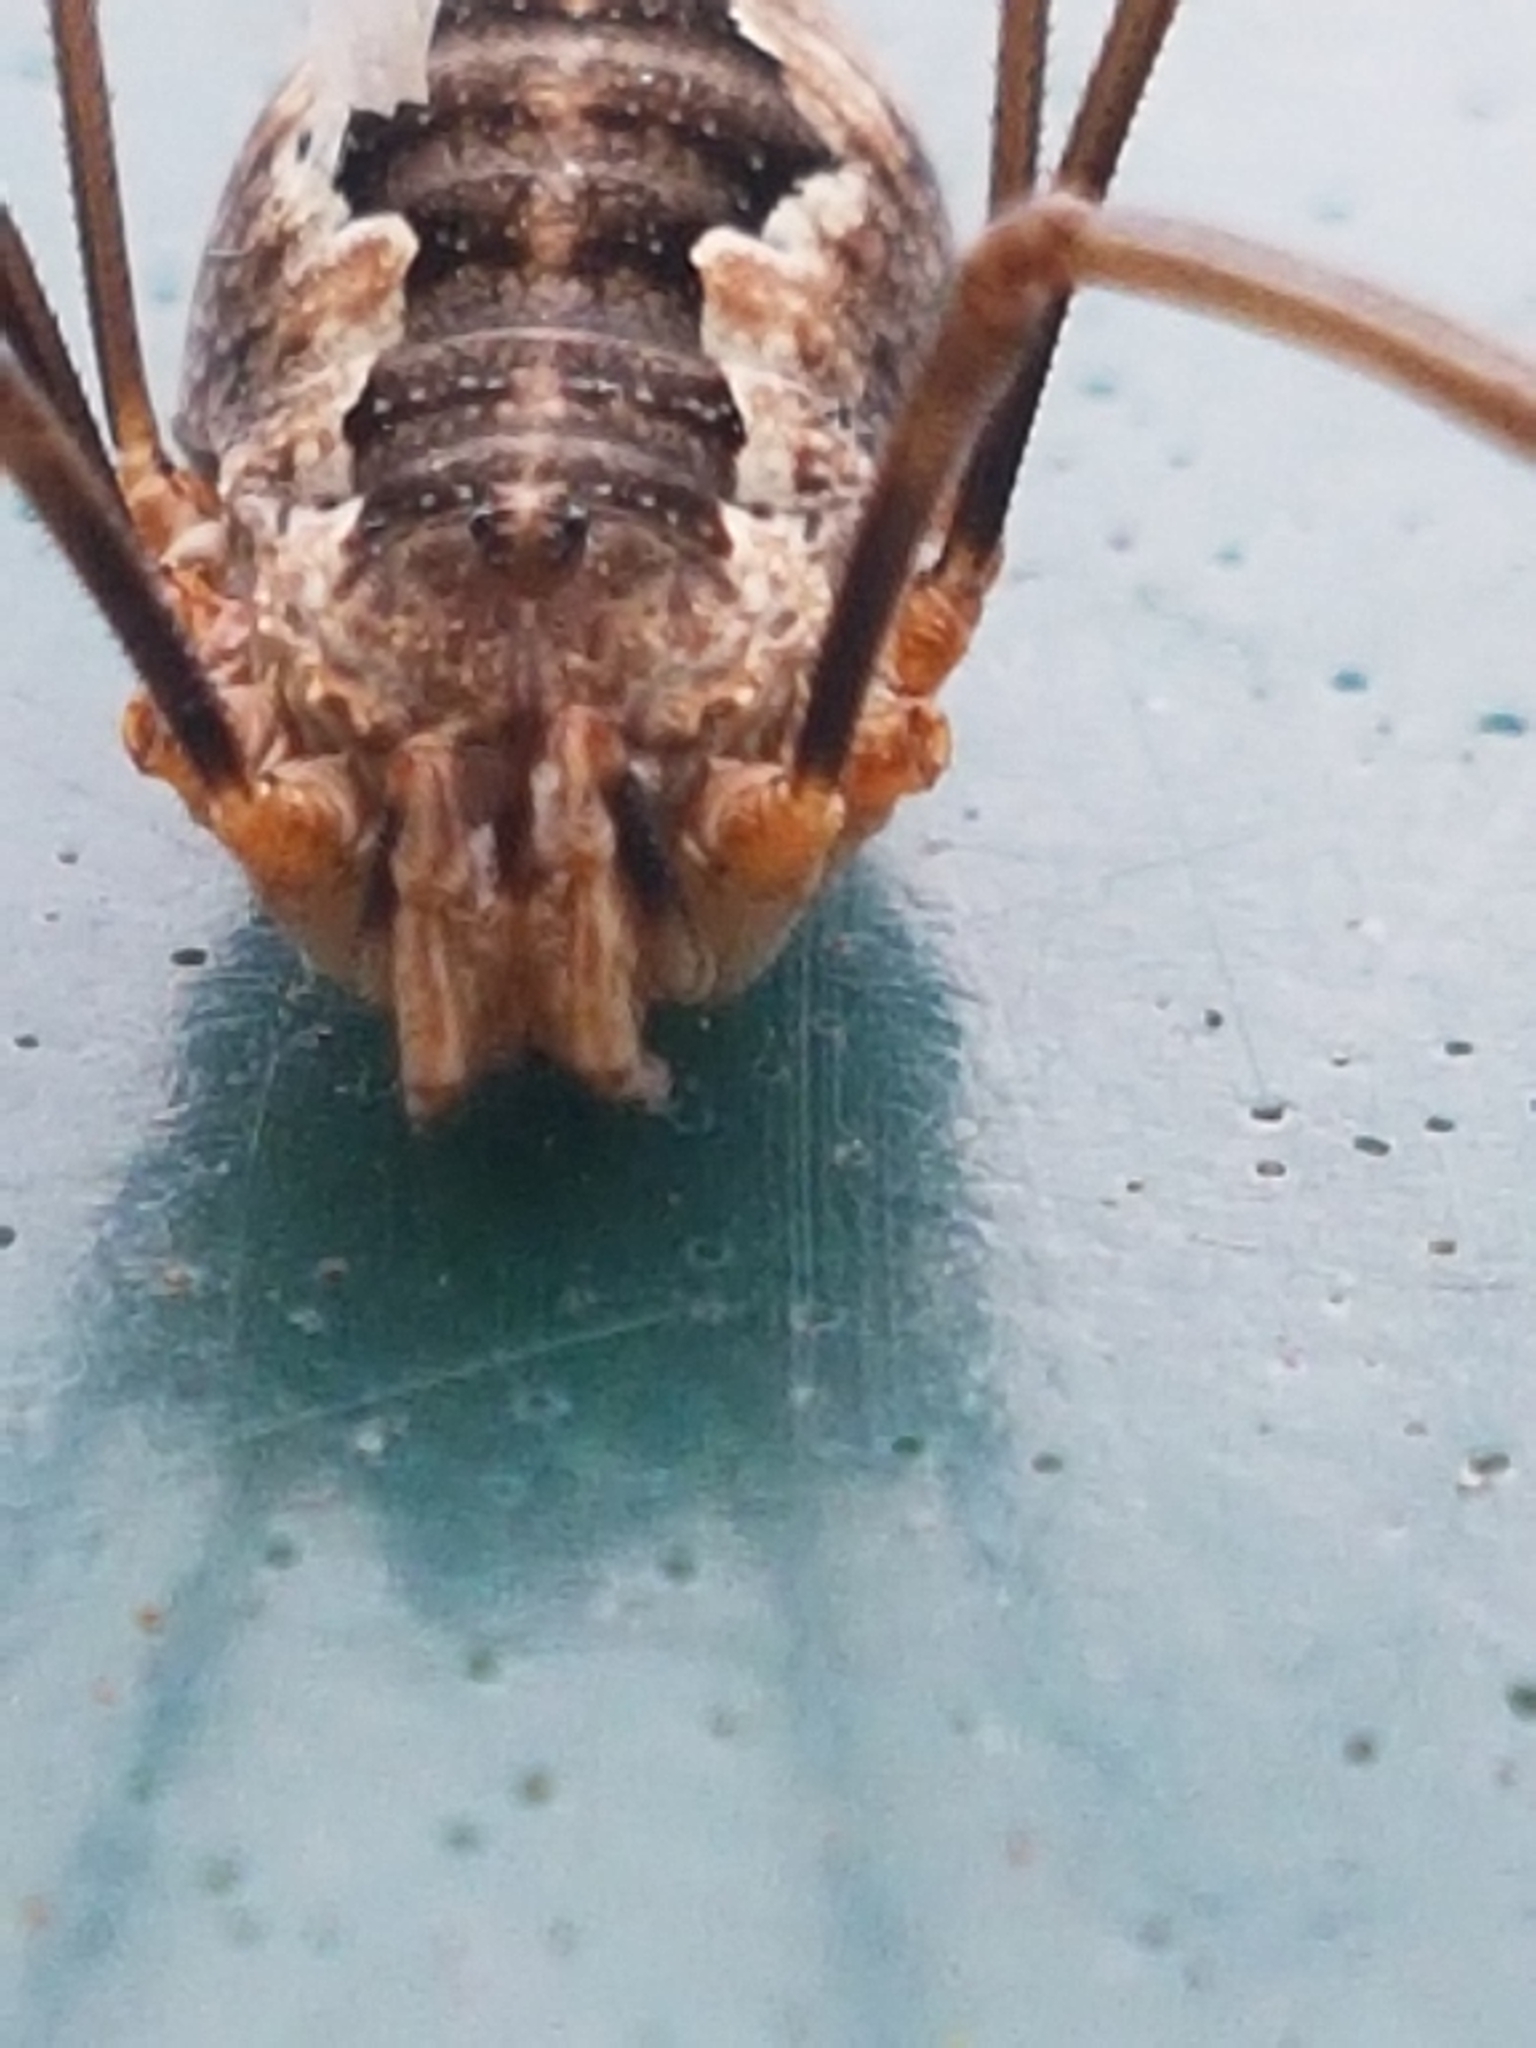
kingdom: Animalia
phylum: Arthropoda
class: Arachnida
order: Opiliones
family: Phalangiidae
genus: Phalangium
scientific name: Phalangium opilio
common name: Daddy longleg
